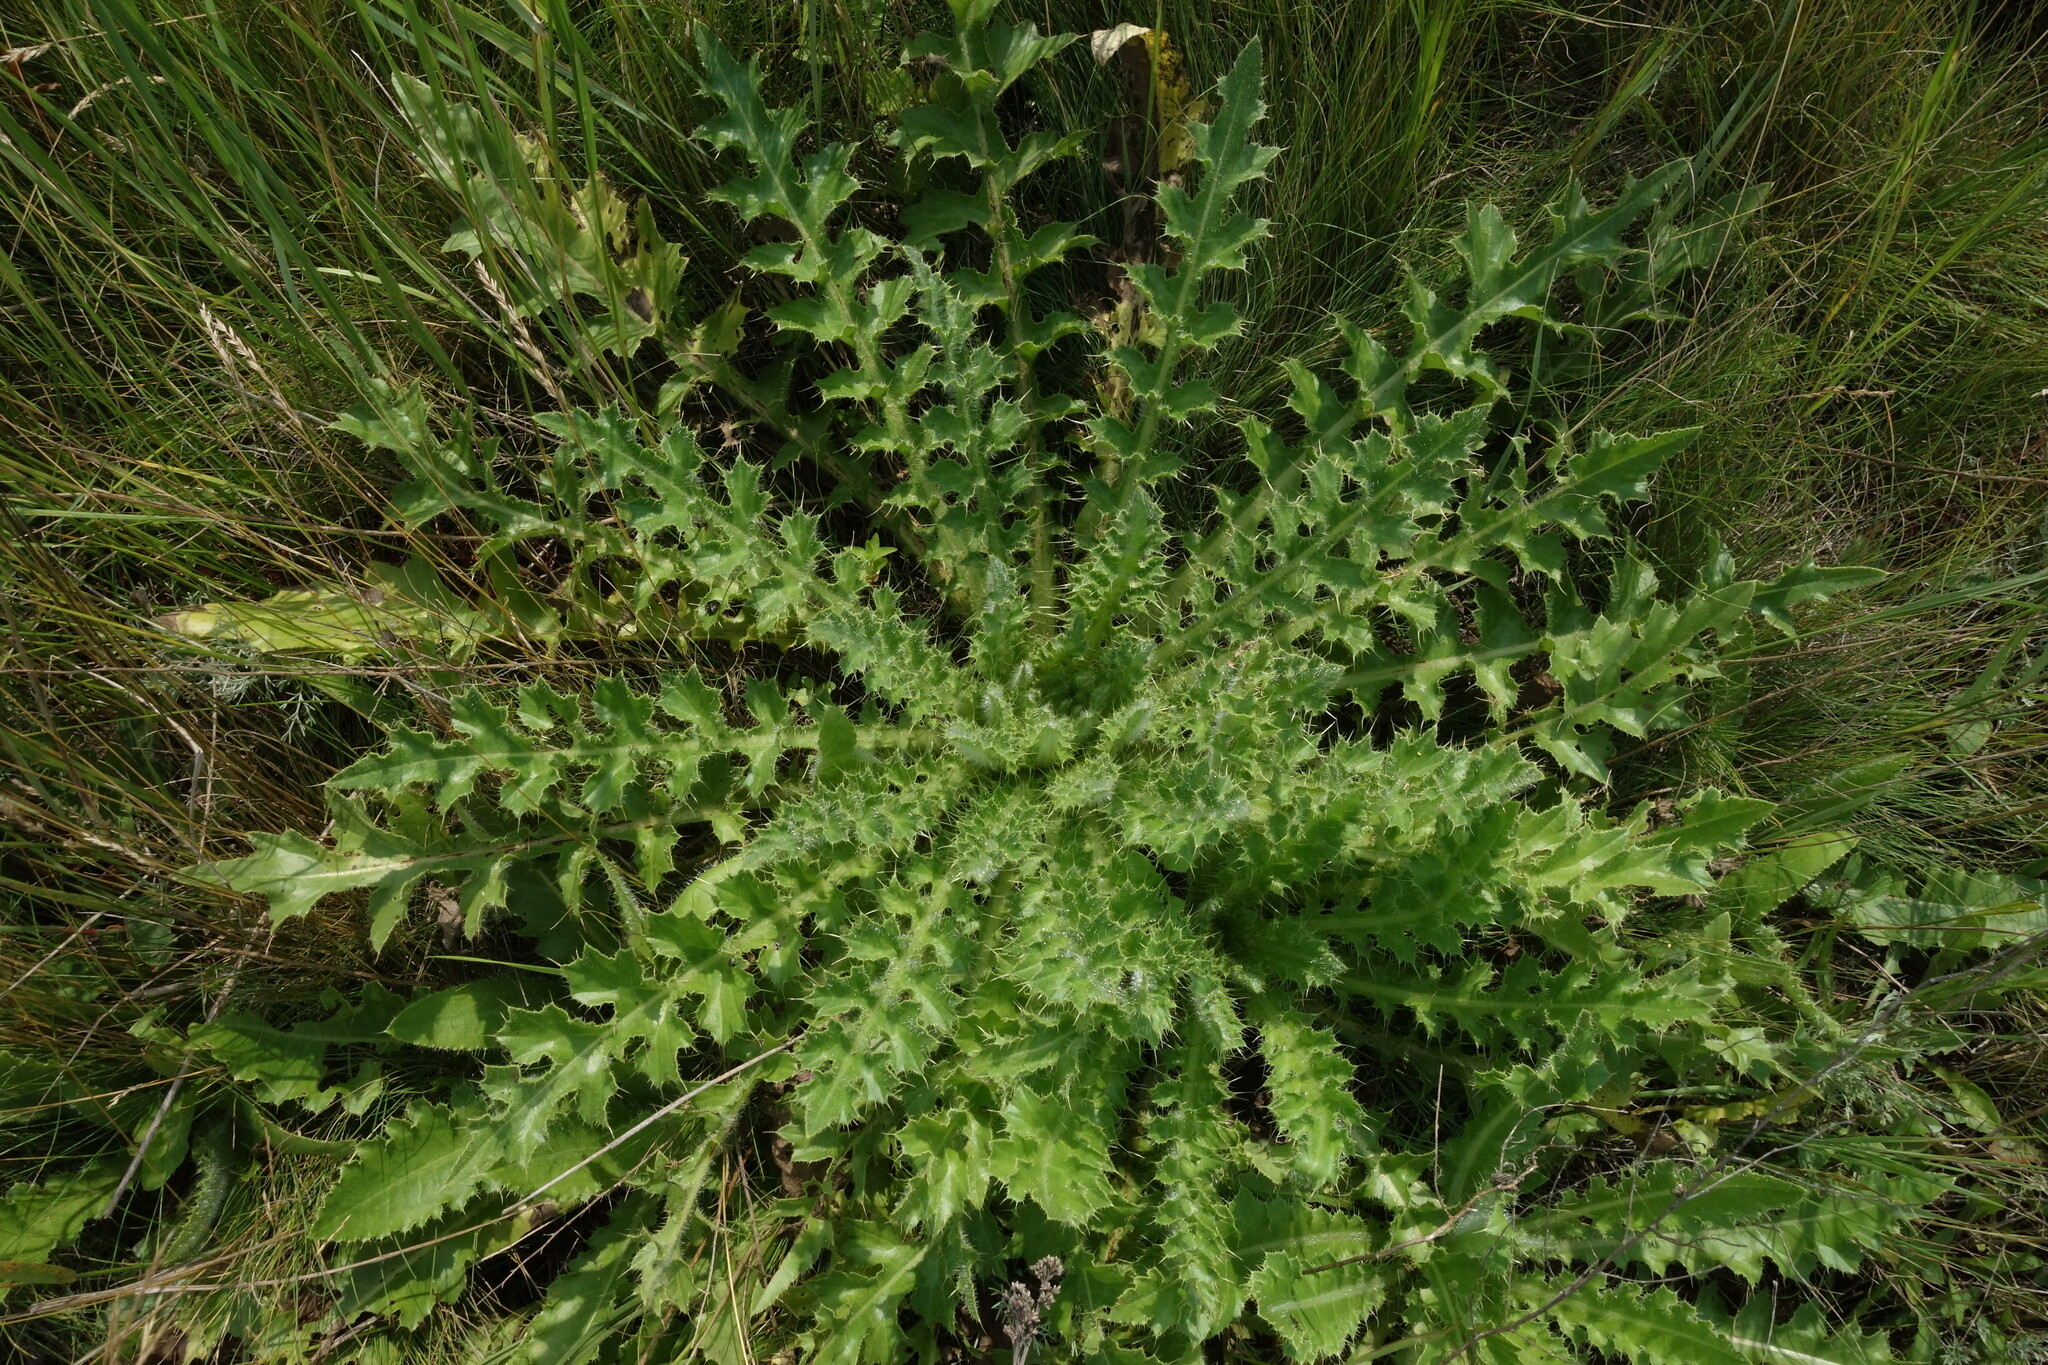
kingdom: Plantae
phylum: Tracheophyta
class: Magnoliopsida
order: Asterales
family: Asteraceae
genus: Cirsium
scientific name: Cirsium esculentum
